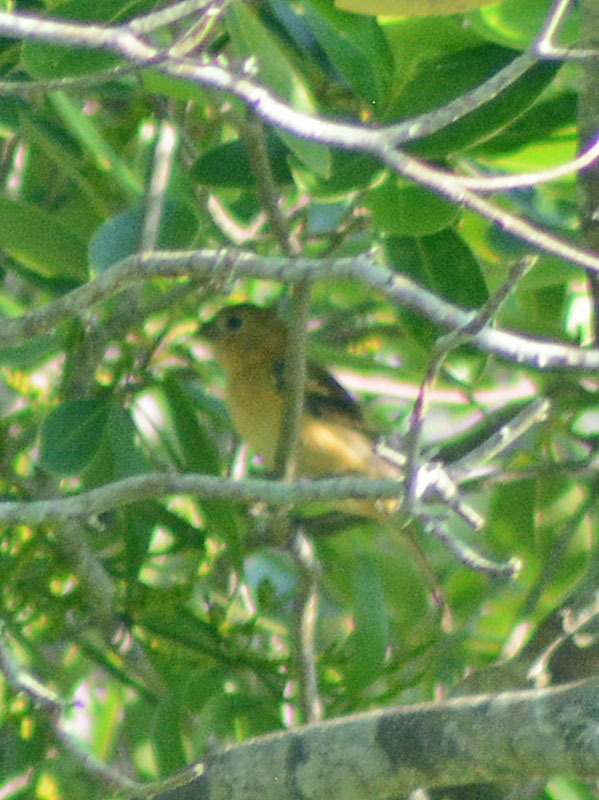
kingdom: Animalia
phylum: Chordata
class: Aves
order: Passeriformes
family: Thraupidae
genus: Sporophila
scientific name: Sporophila morelleti
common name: Morelet's seedeater
